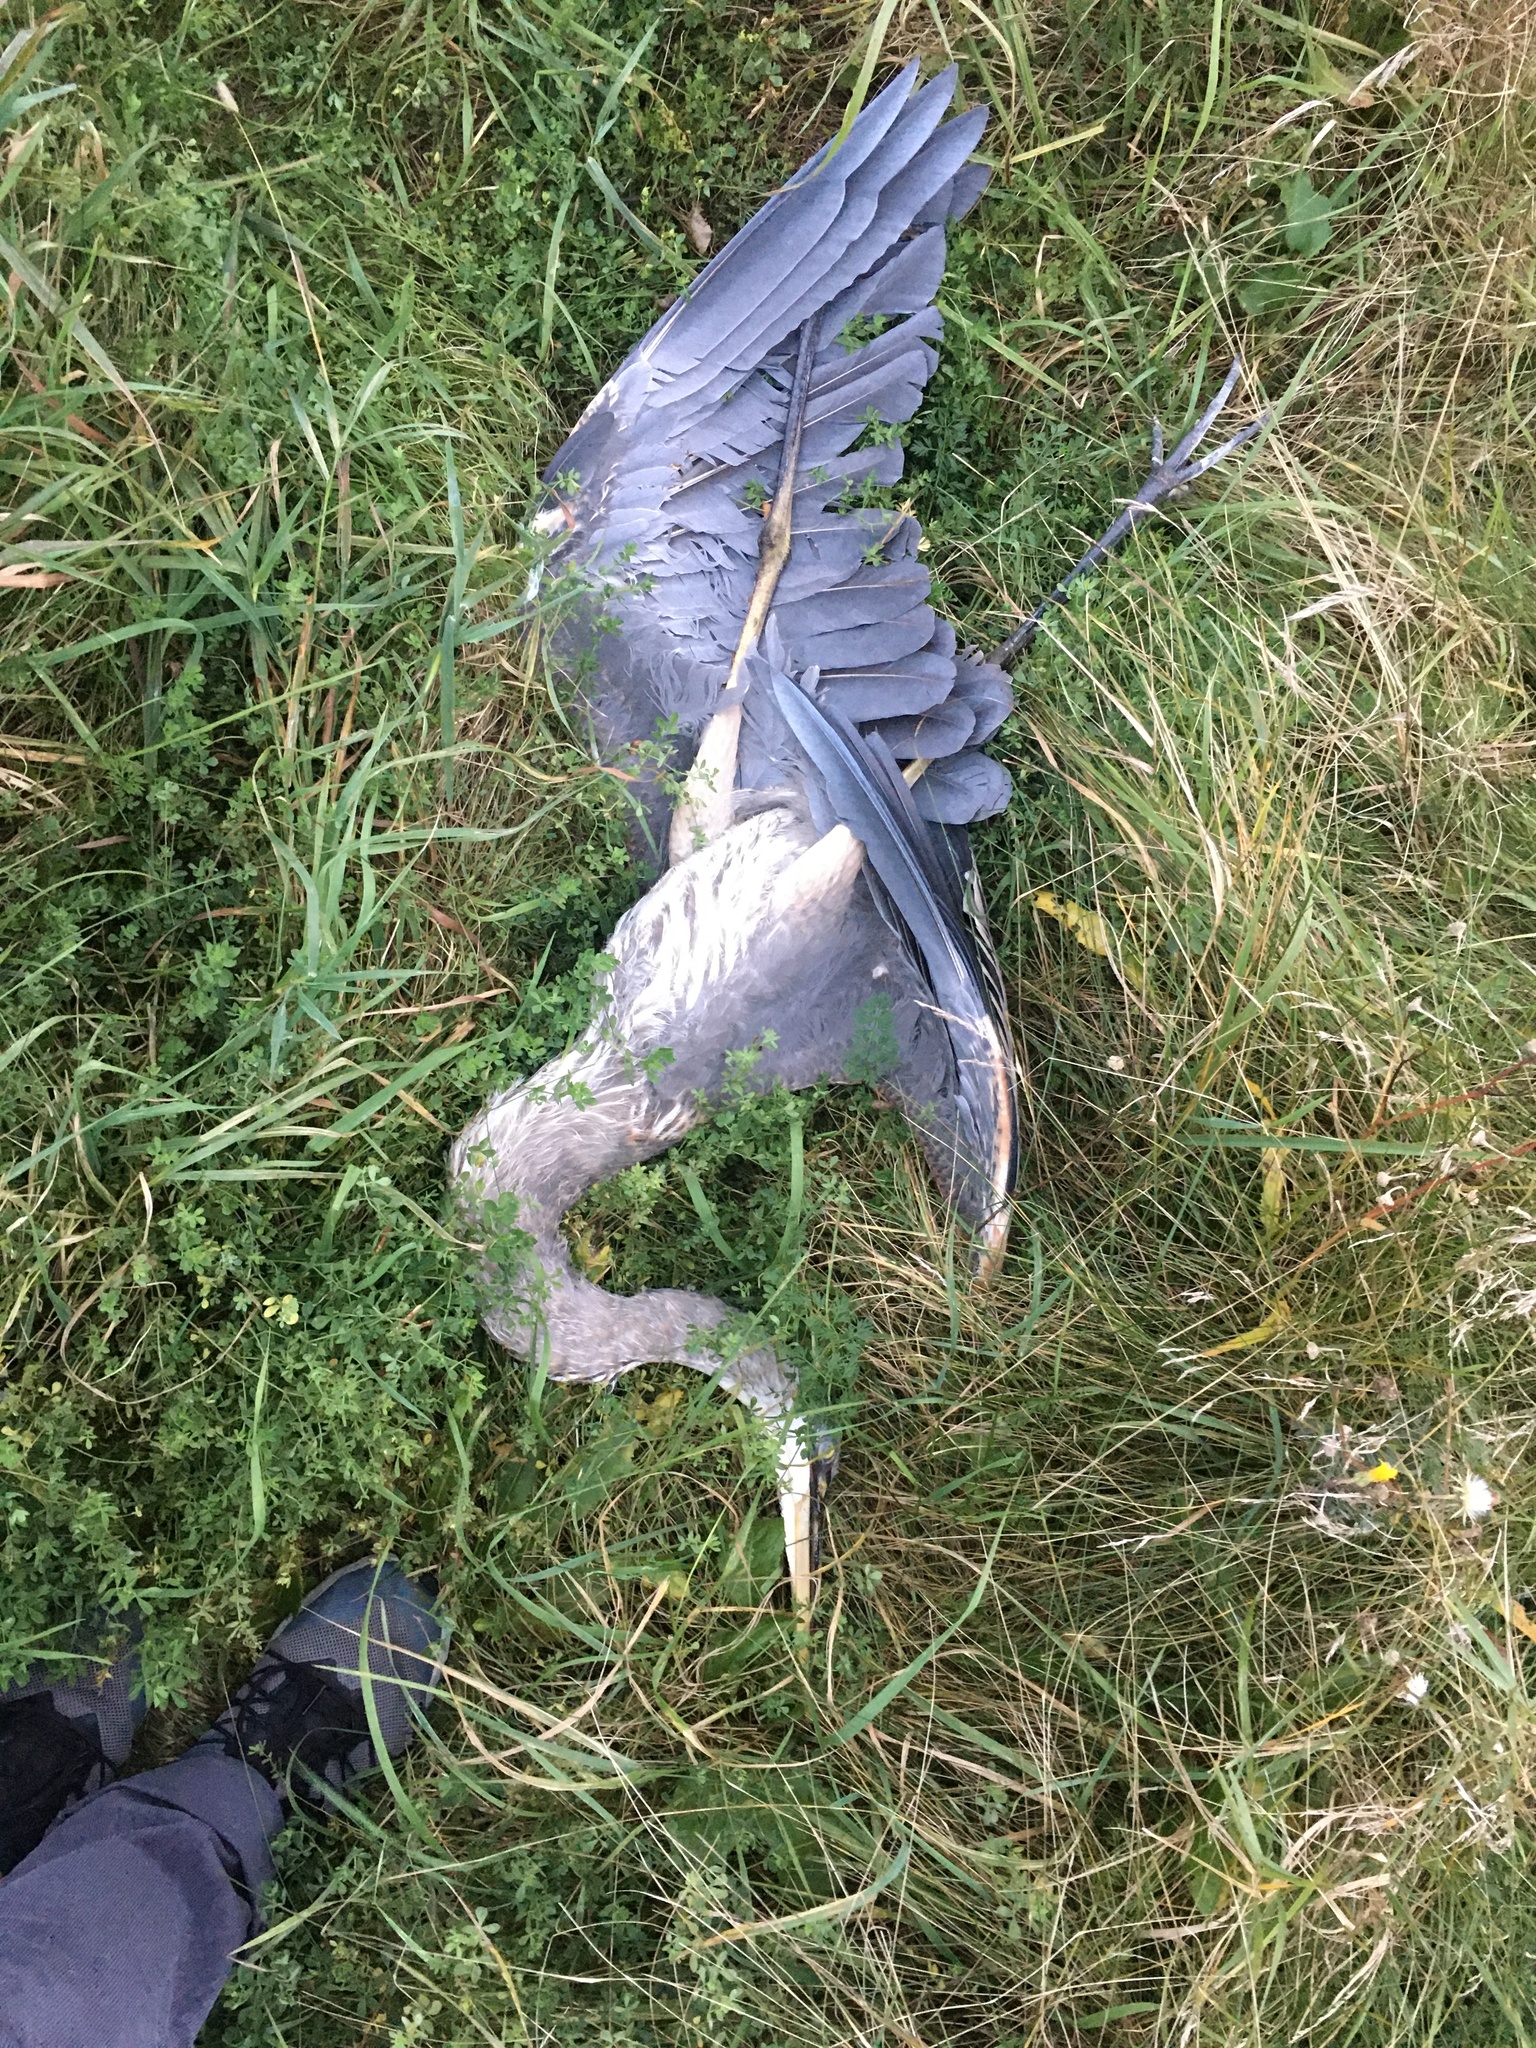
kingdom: Animalia
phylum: Chordata
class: Aves
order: Pelecaniformes
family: Ardeidae
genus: Ardea
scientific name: Ardea herodias
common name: Great blue heron
